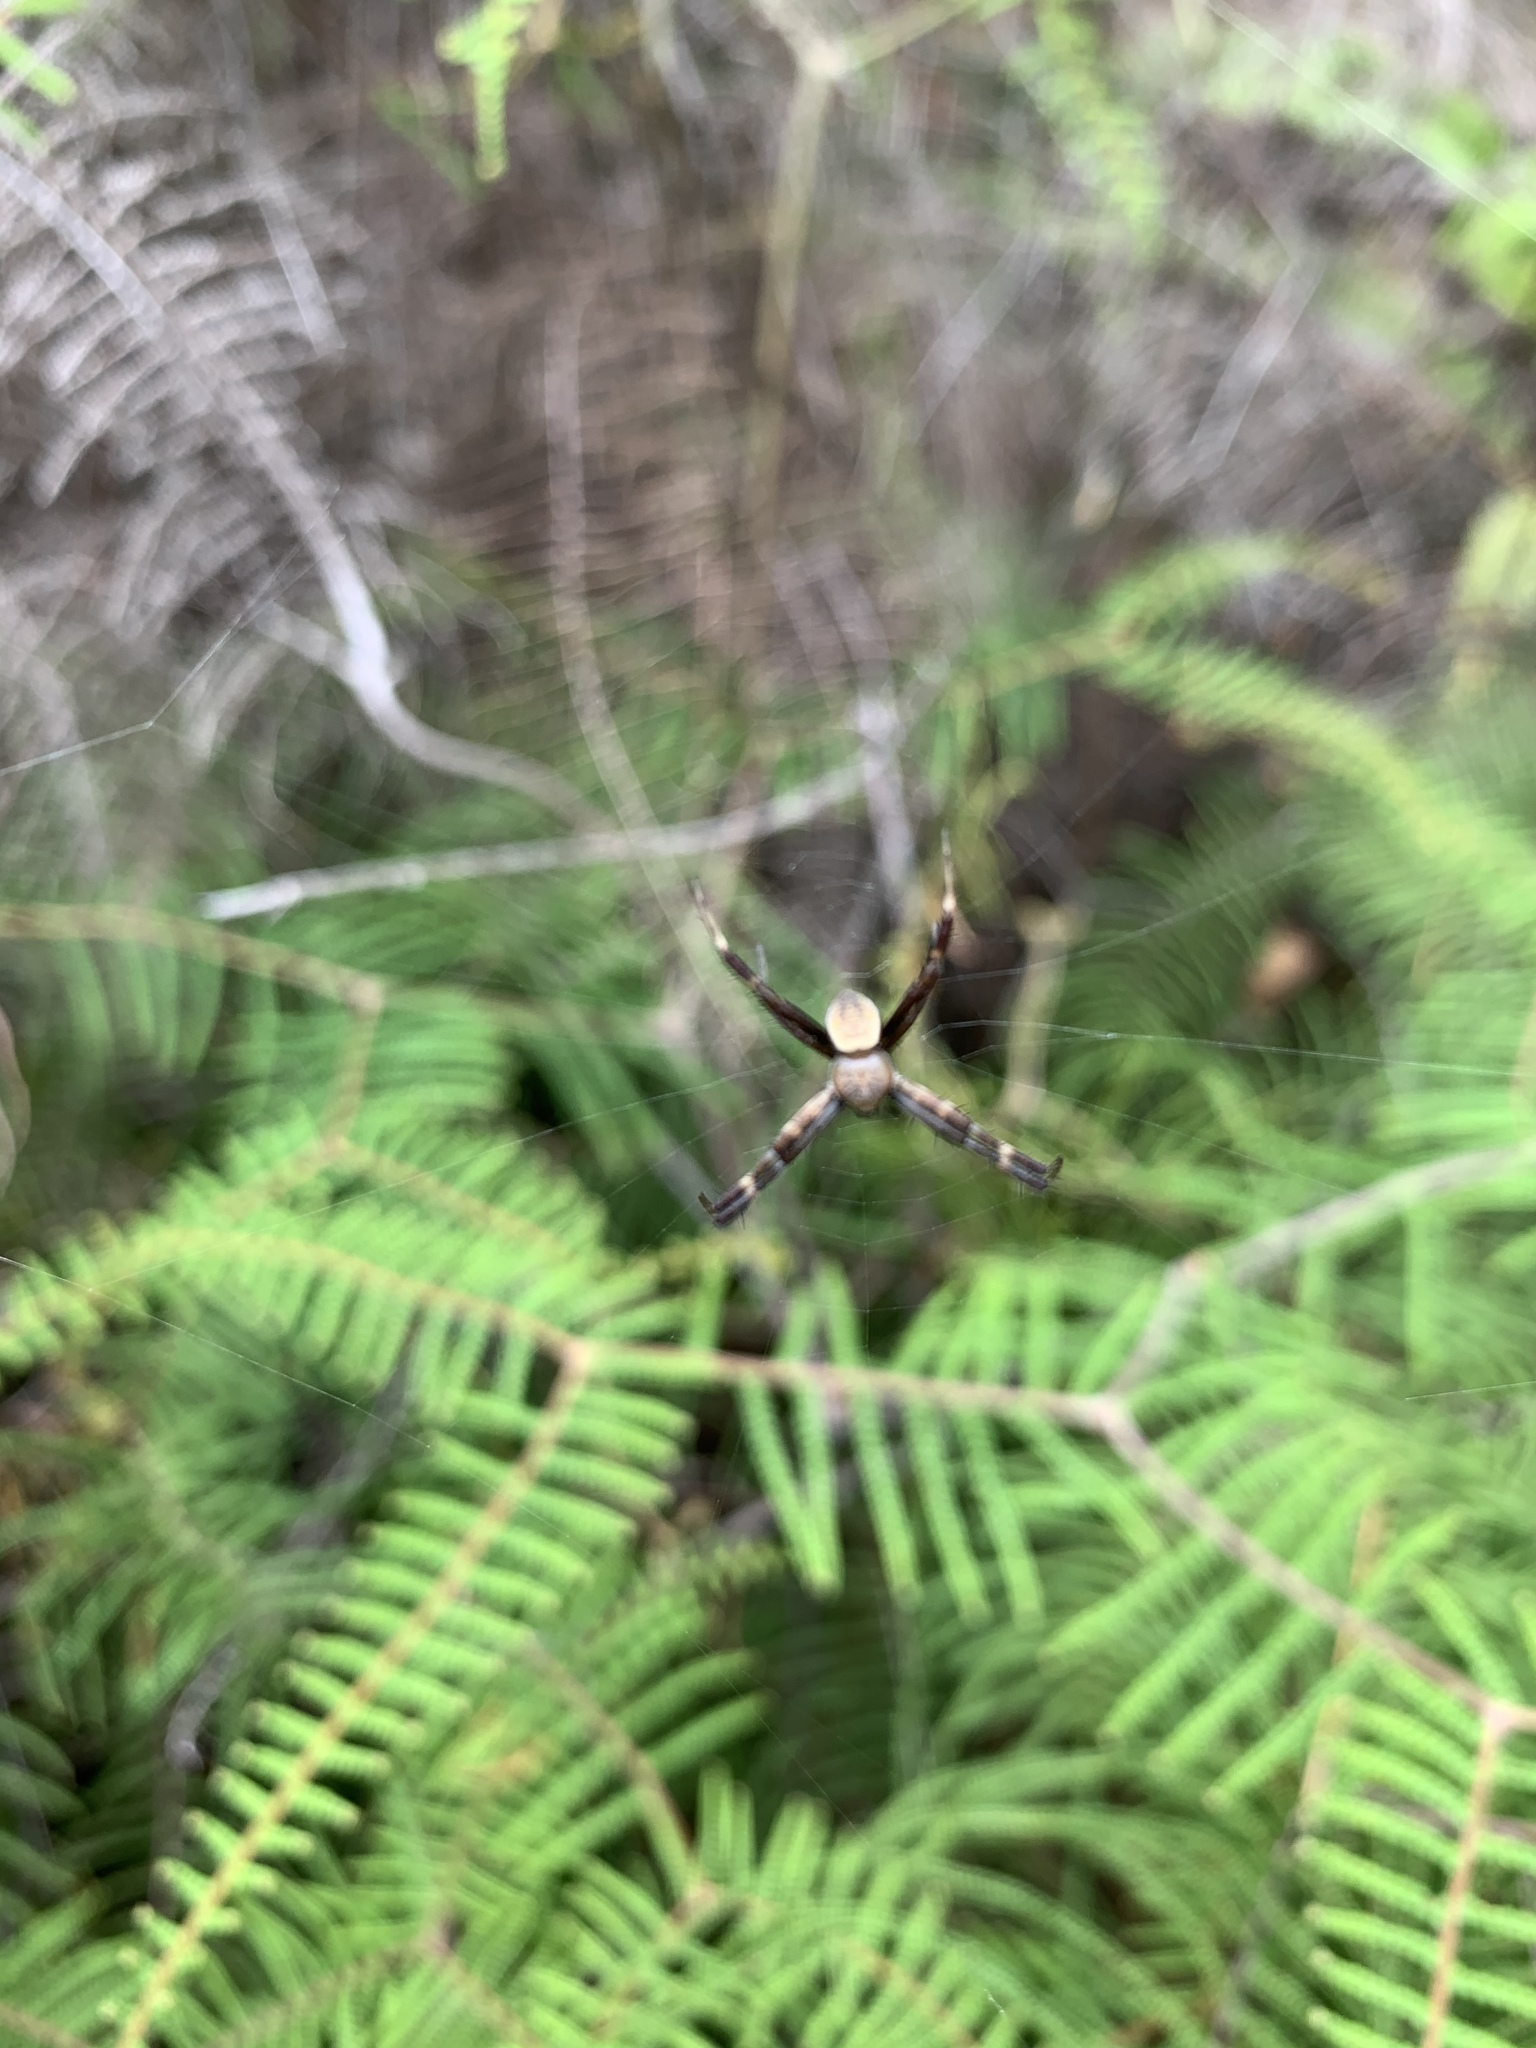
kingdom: Animalia
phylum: Arthropoda
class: Arachnida
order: Araneae
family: Araneidae
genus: Argiope
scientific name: Argiope keyserlingi
